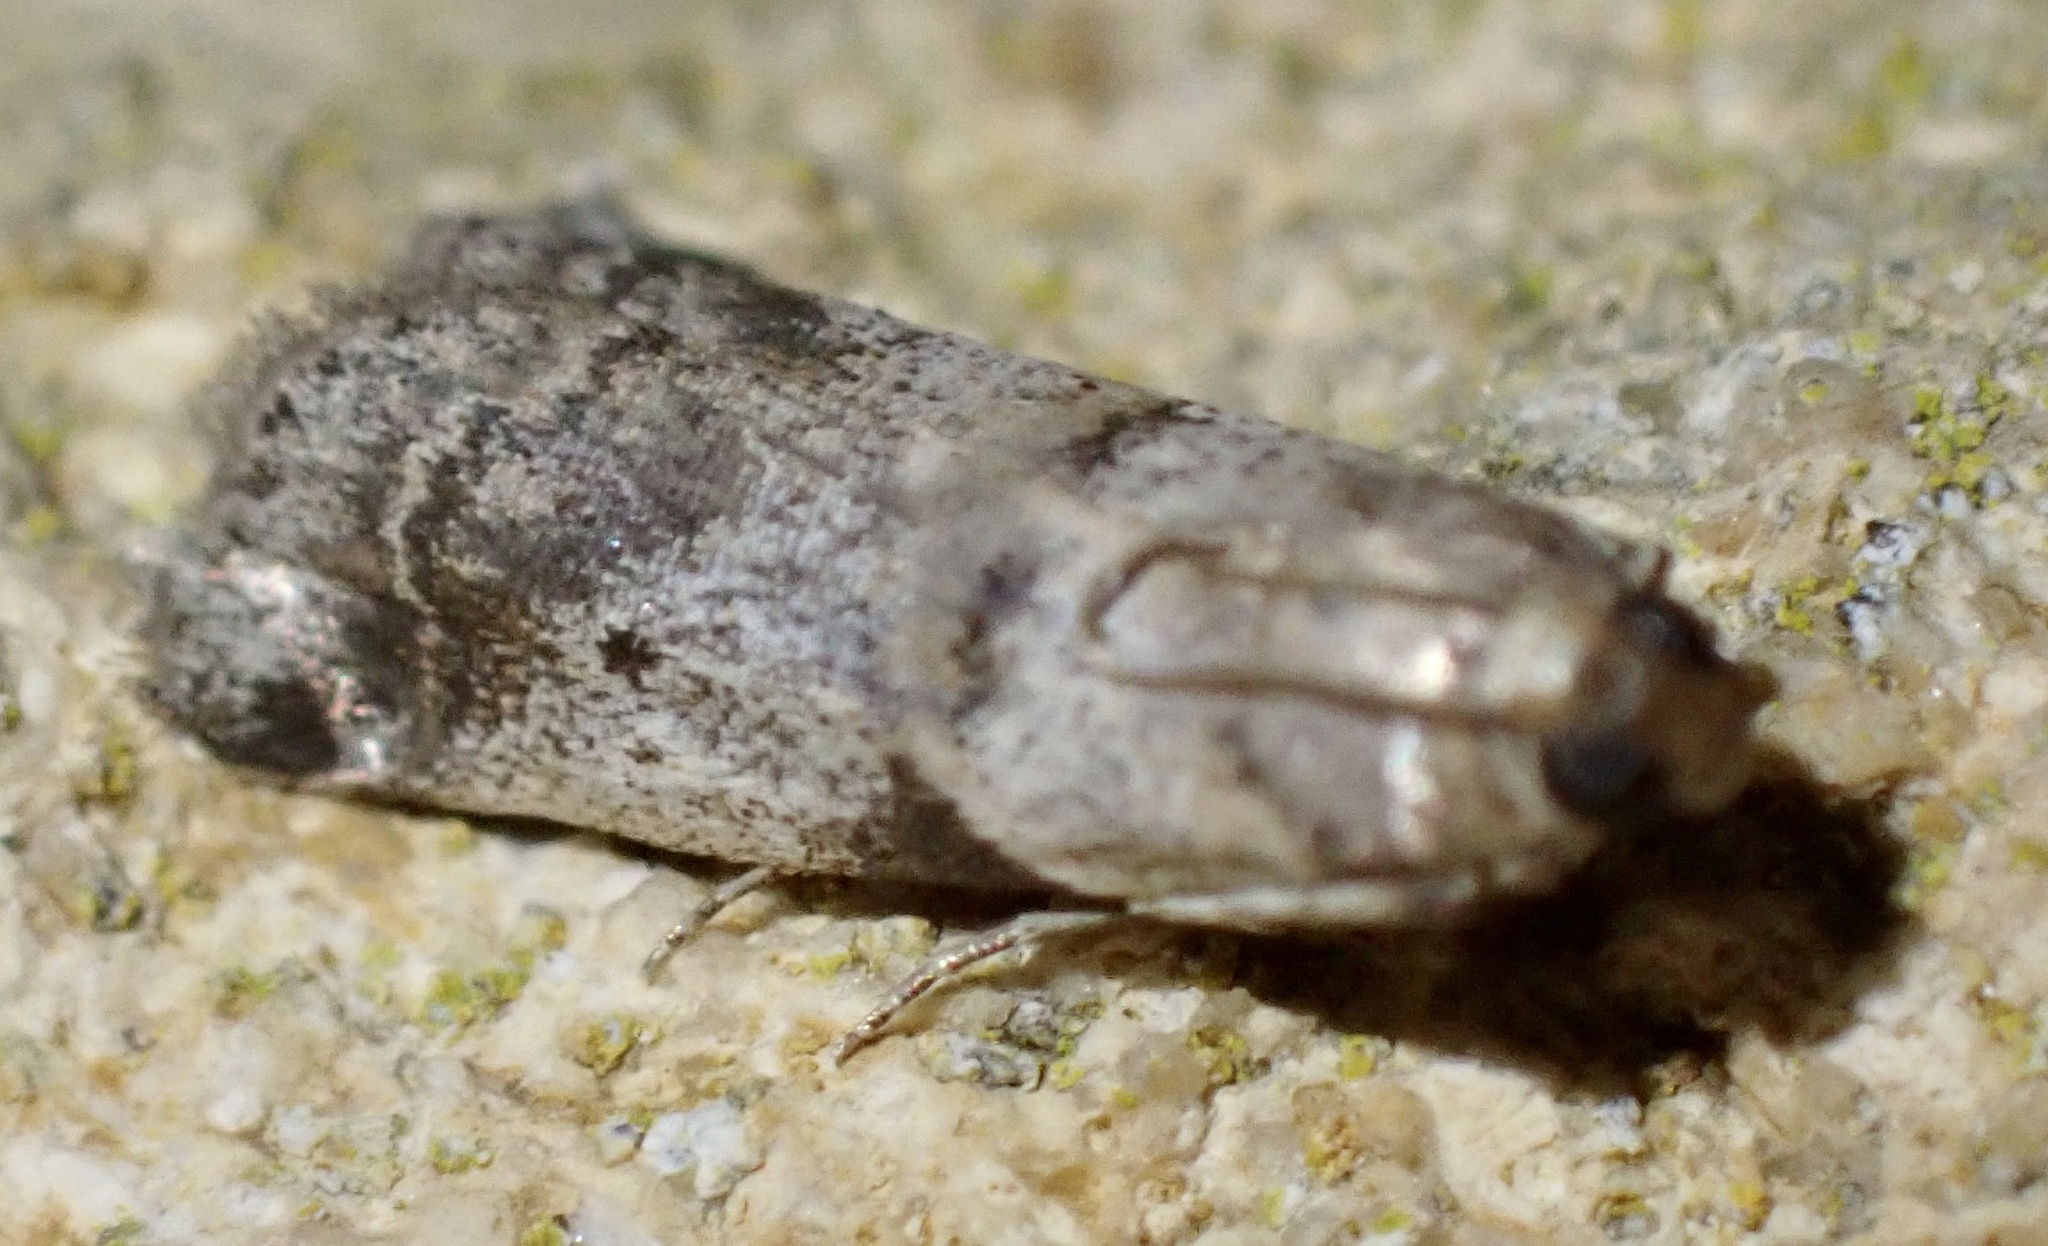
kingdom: Animalia
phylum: Arthropoda
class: Insecta
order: Lepidoptera
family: Pyralidae
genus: Acrobasis
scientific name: Acrobasis glaucella
